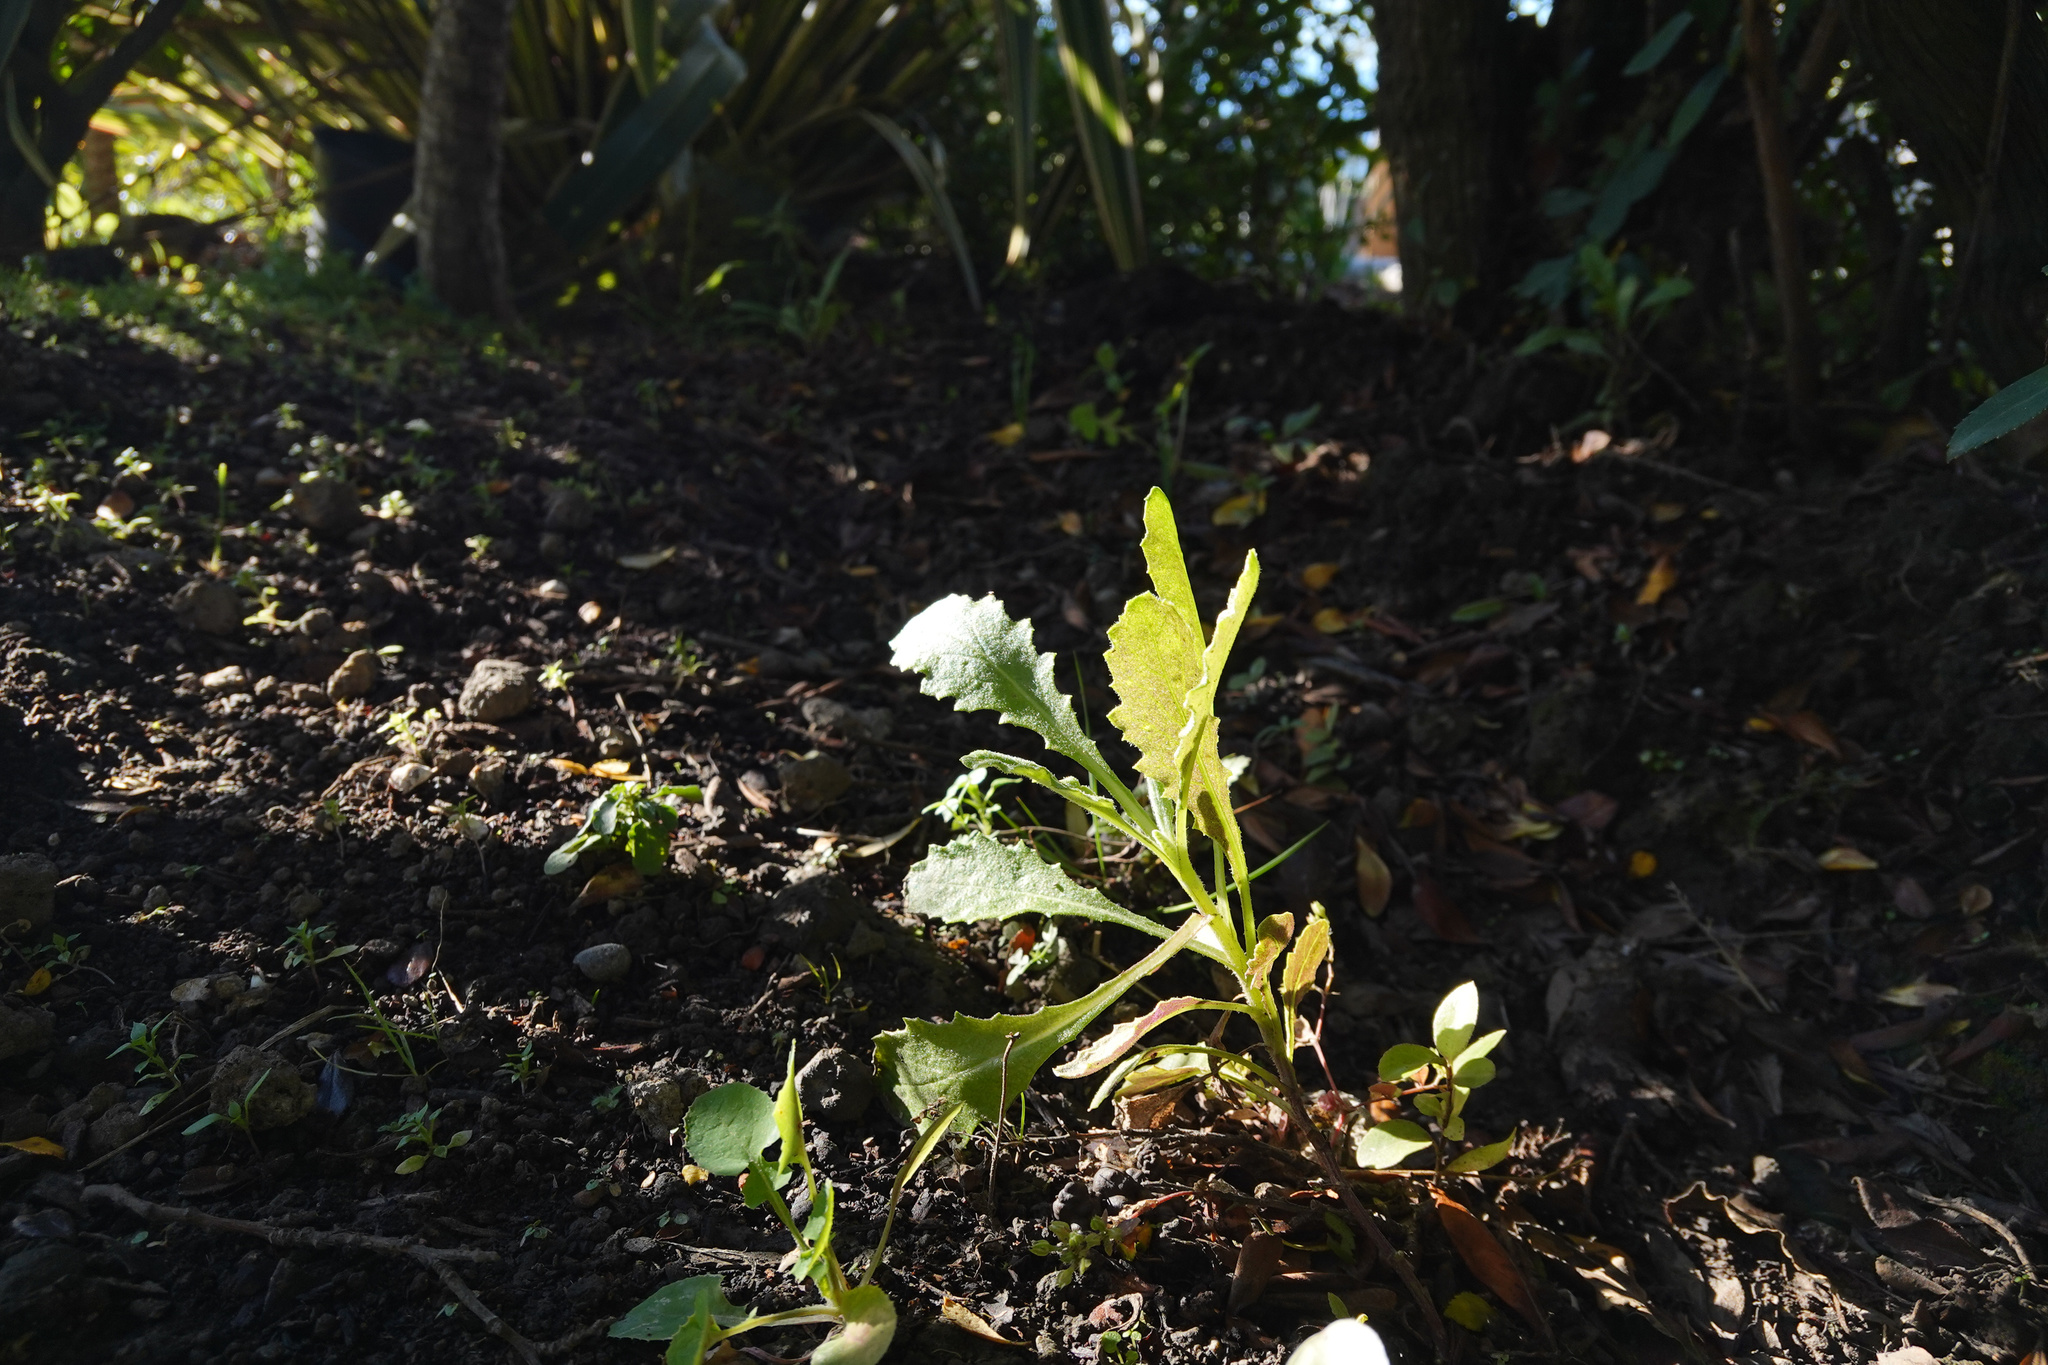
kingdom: Plantae
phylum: Tracheophyta
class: Magnoliopsida
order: Asterales
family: Asteraceae
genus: Senecio
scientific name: Senecio glomeratus
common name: Cutleaf burnweed
